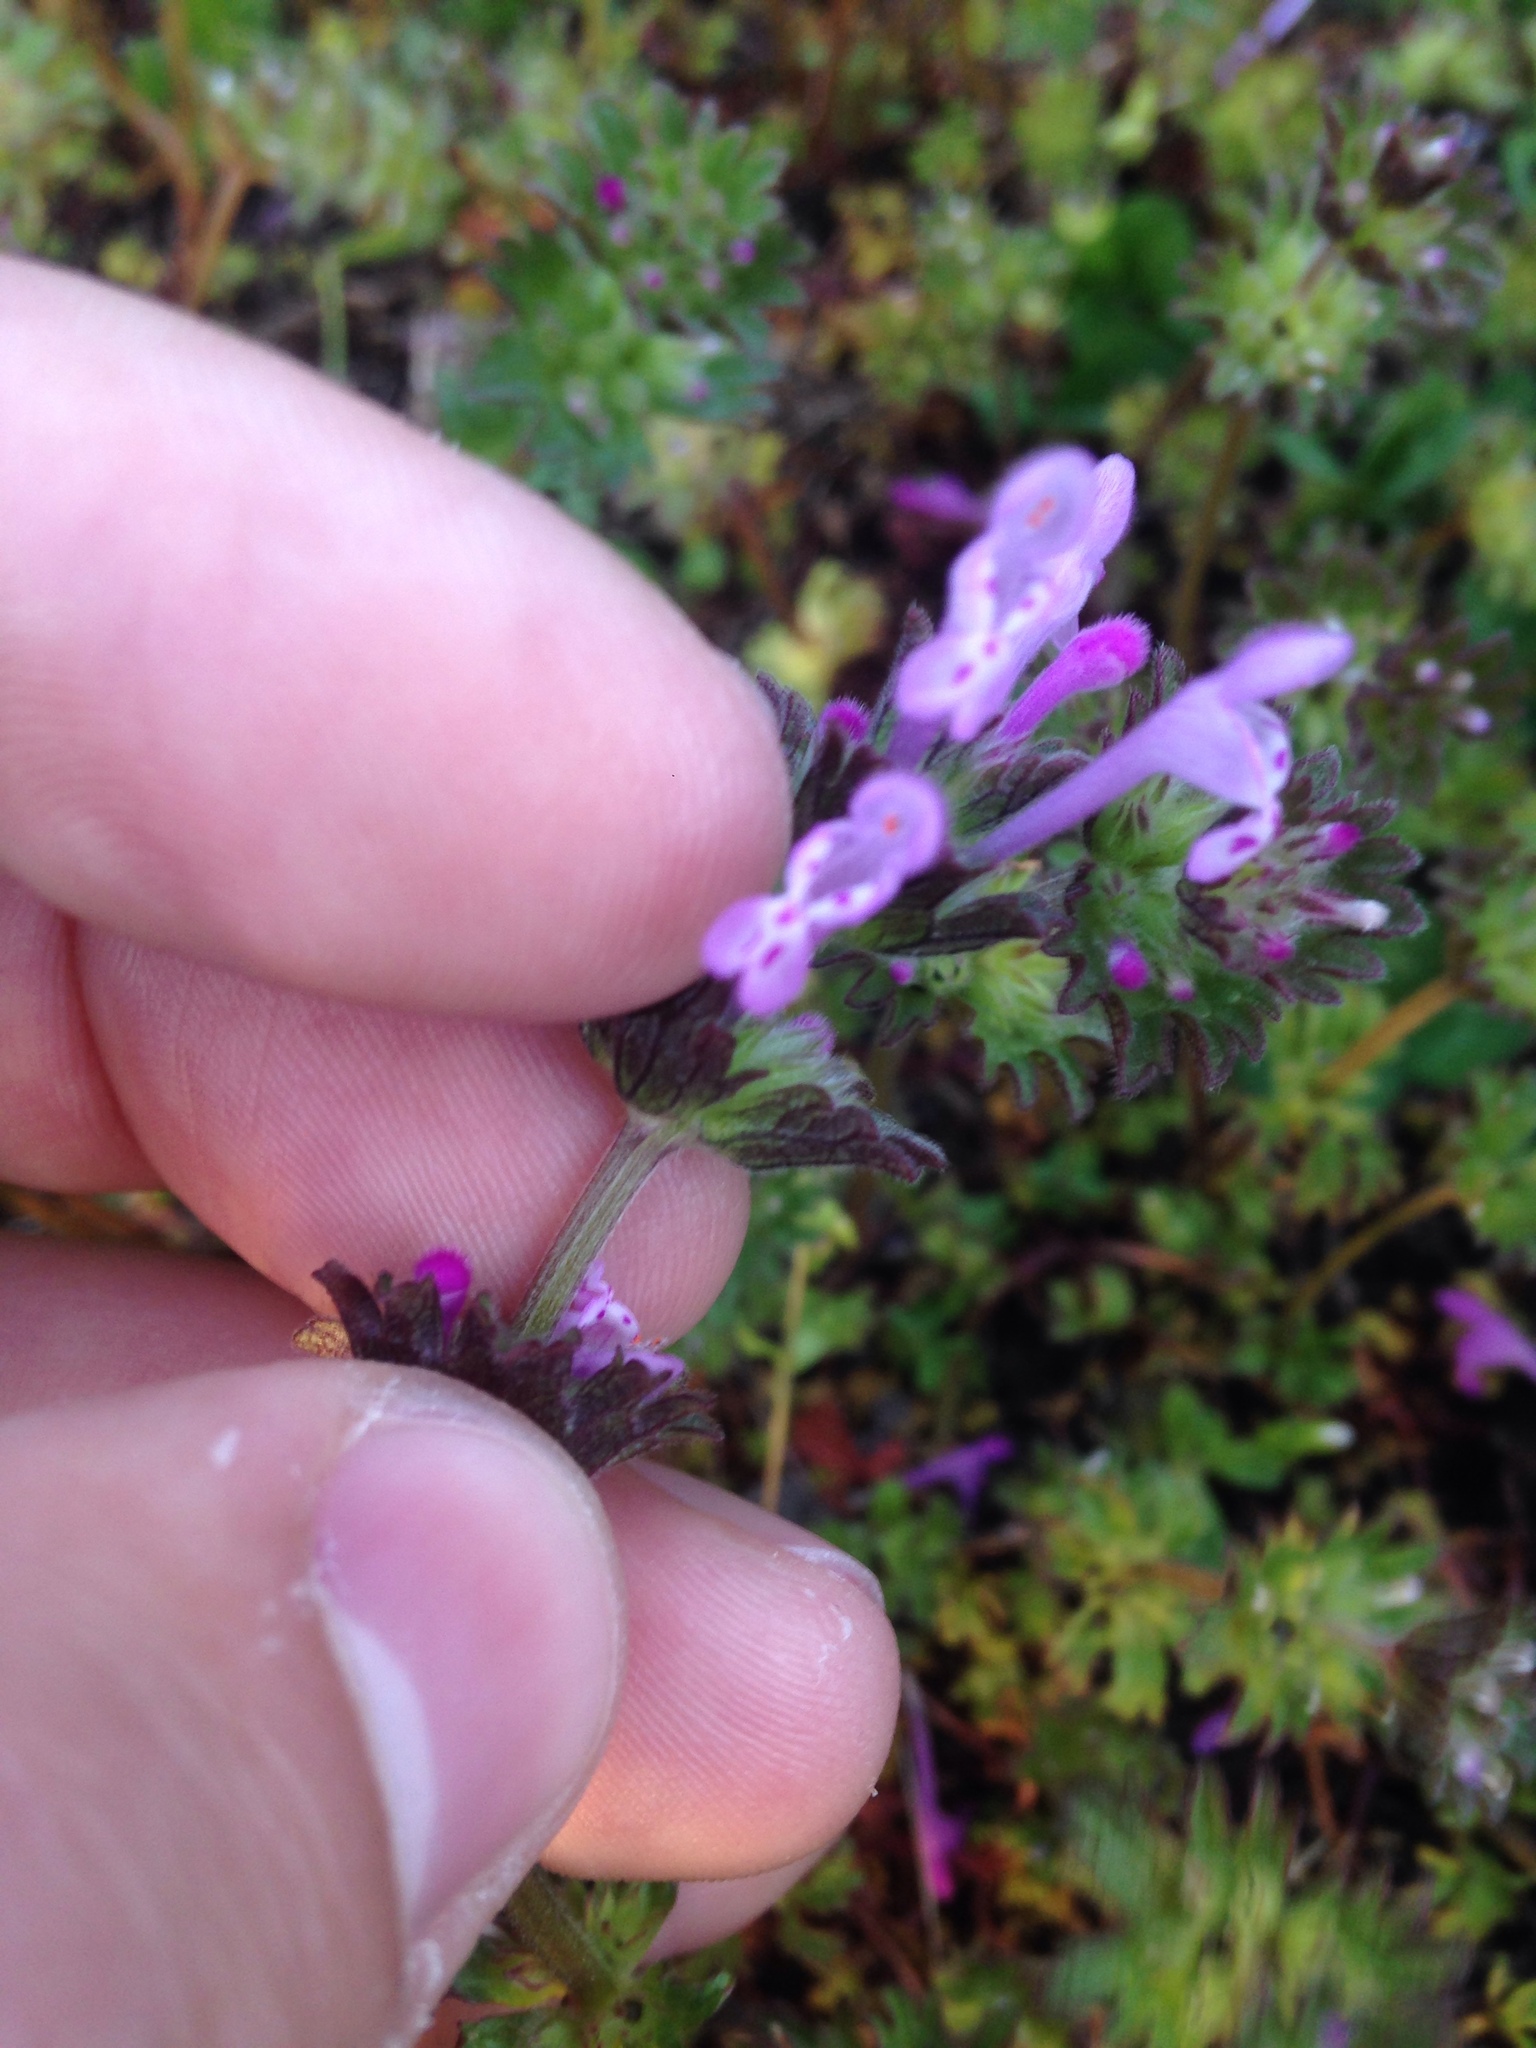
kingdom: Plantae
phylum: Tracheophyta
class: Magnoliopsida
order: Lamiales
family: Lamiaceae
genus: Lamium
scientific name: Lamium amplexicaule
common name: Henbit dead-nettle
